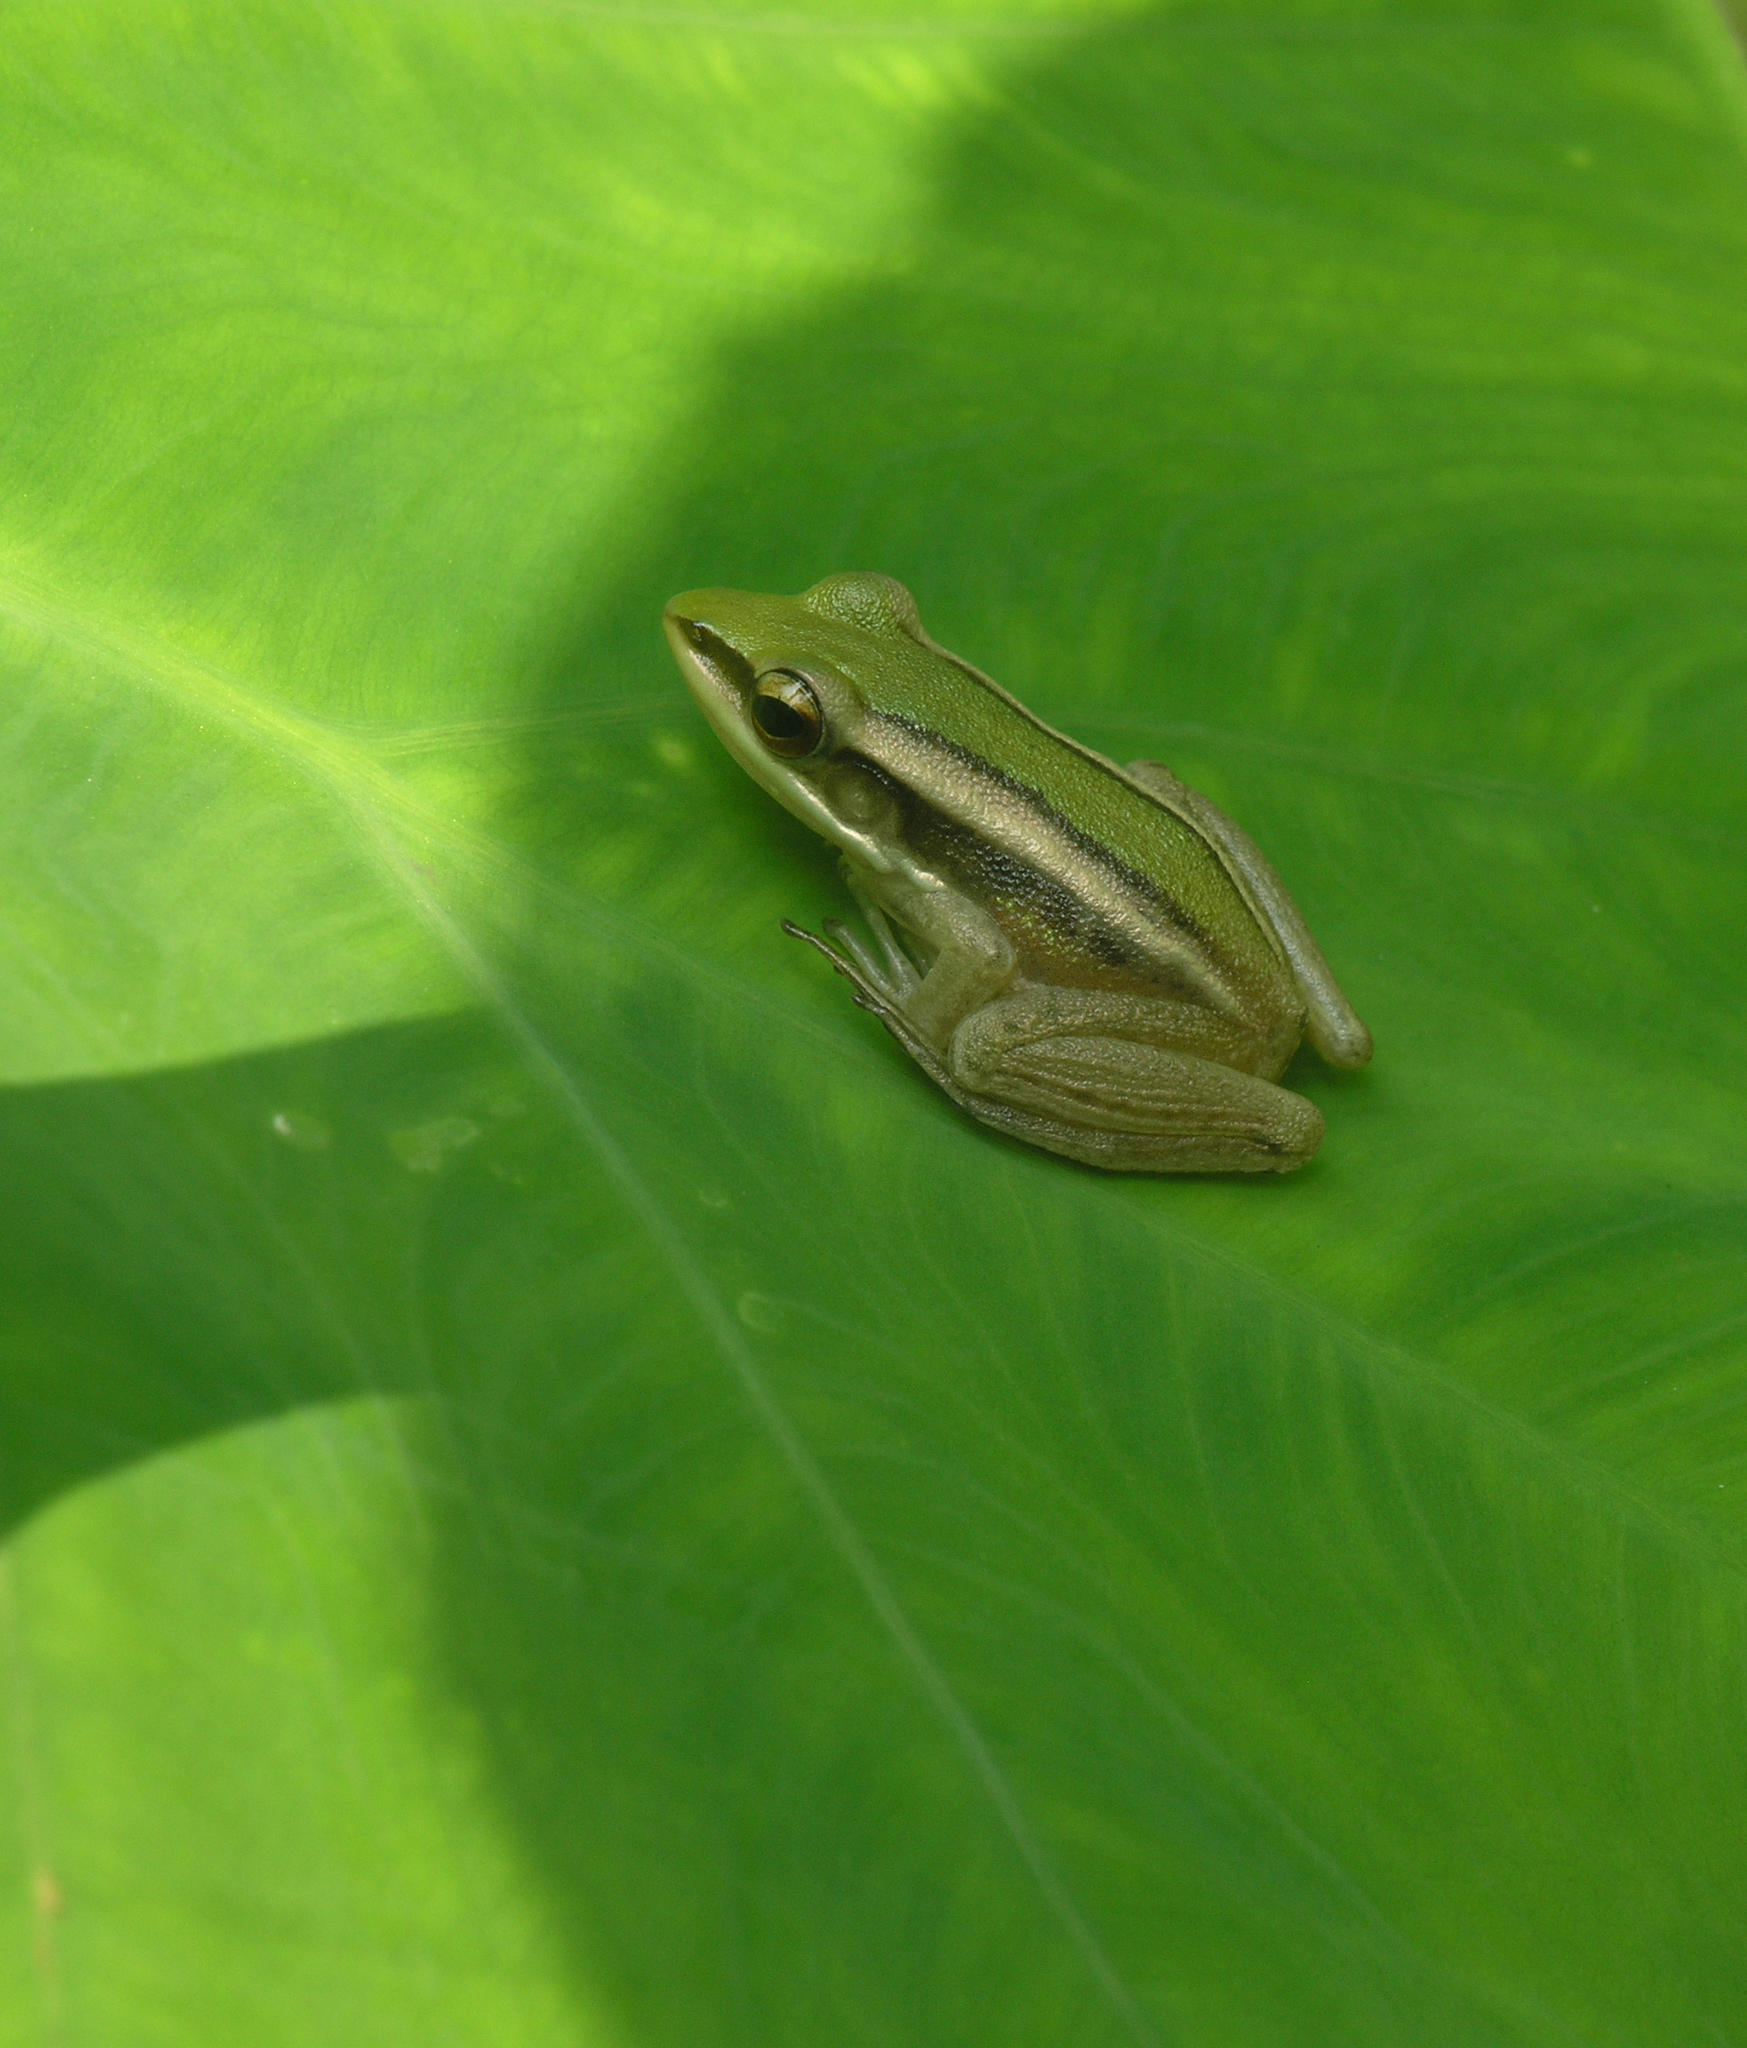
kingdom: Animalia
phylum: Chordata
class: Amphibia
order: Anura
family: Ranidae
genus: Hylarana
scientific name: Hylarana erythraea
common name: Common green frog/green paddy frog/leaf frog
